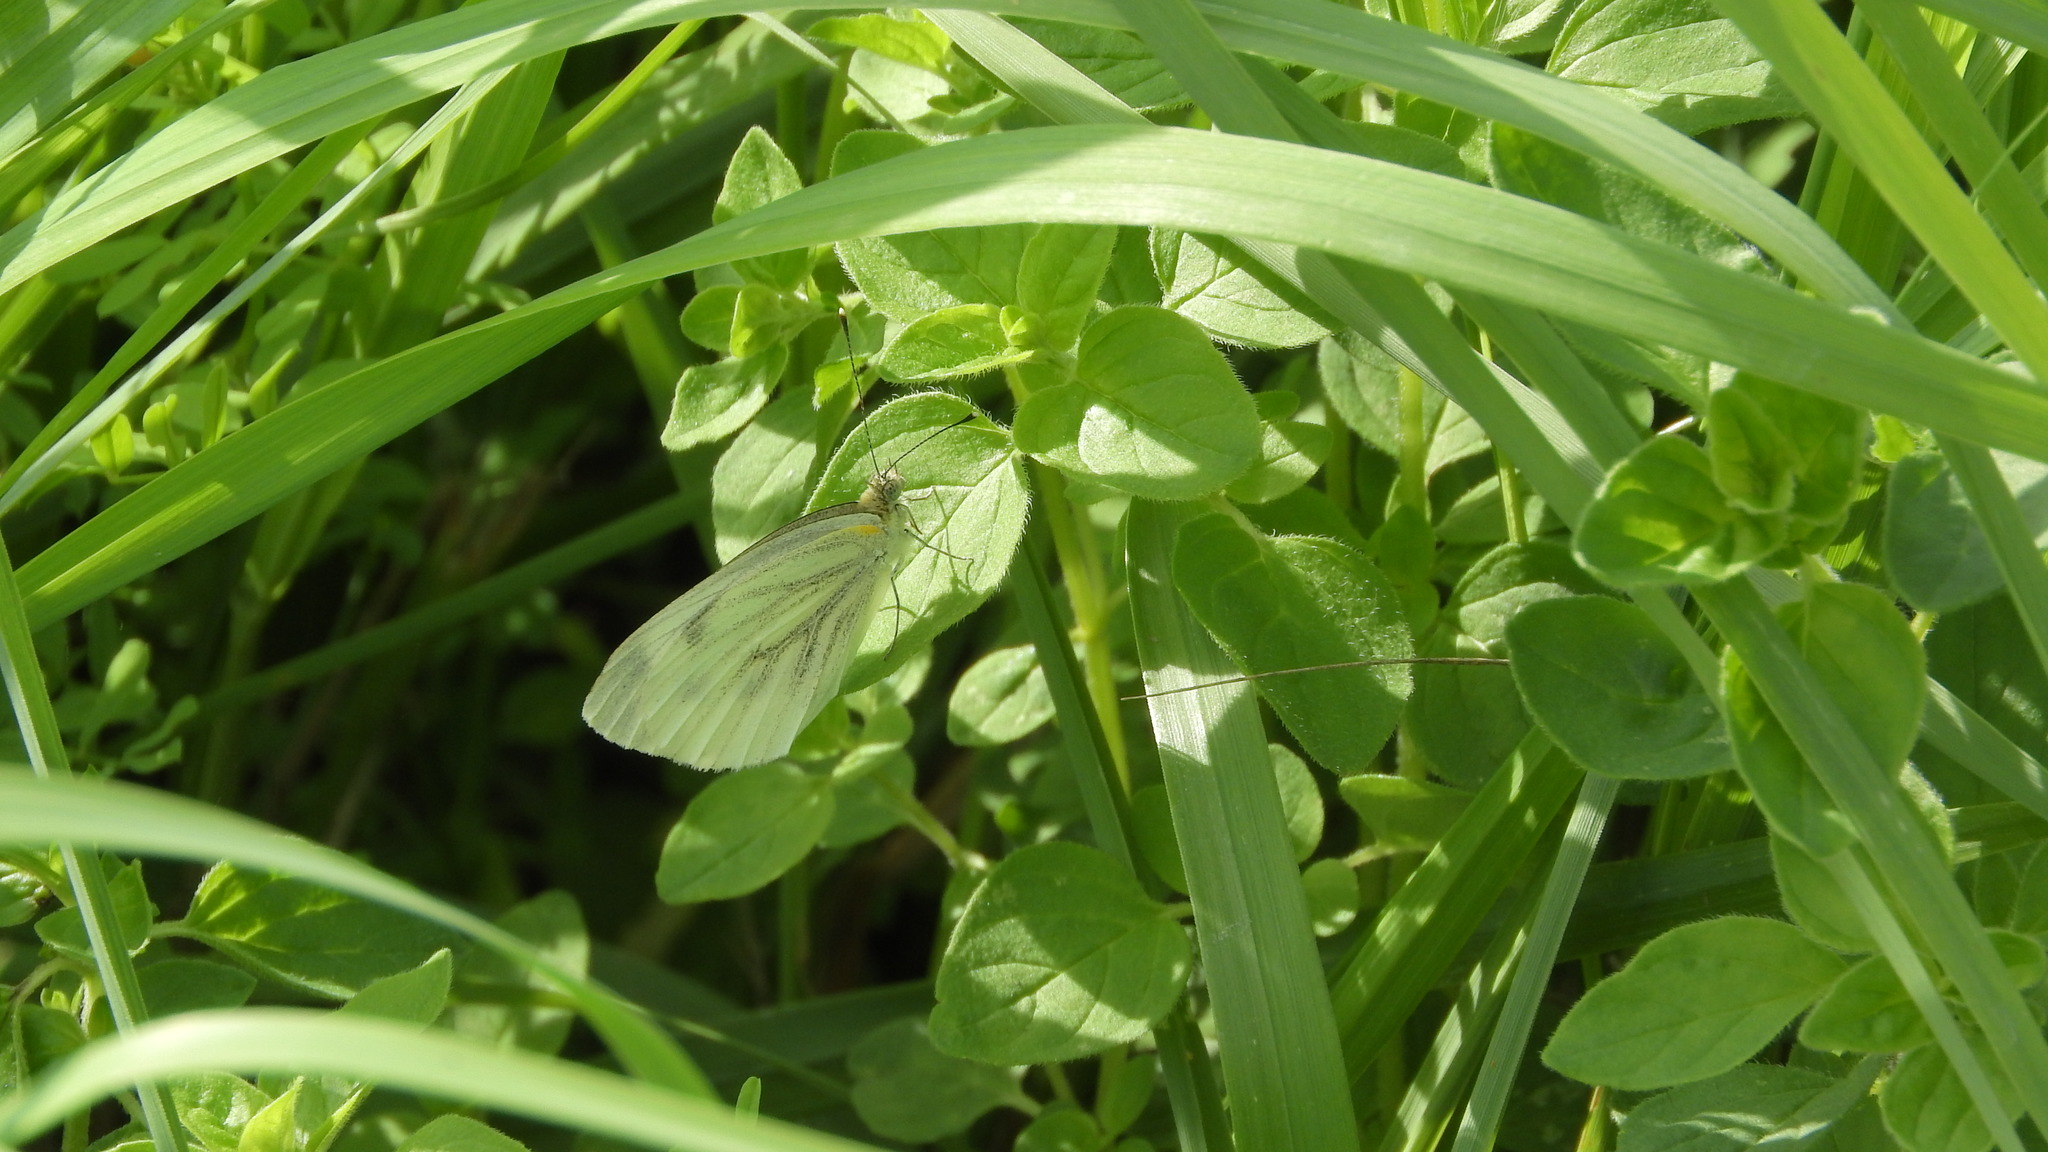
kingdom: Animalia
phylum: Arthropoda
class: Insecta
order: Lepidoptera
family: Pieridae
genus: Pieris
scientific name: Pieris napi
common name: Green-veined white
